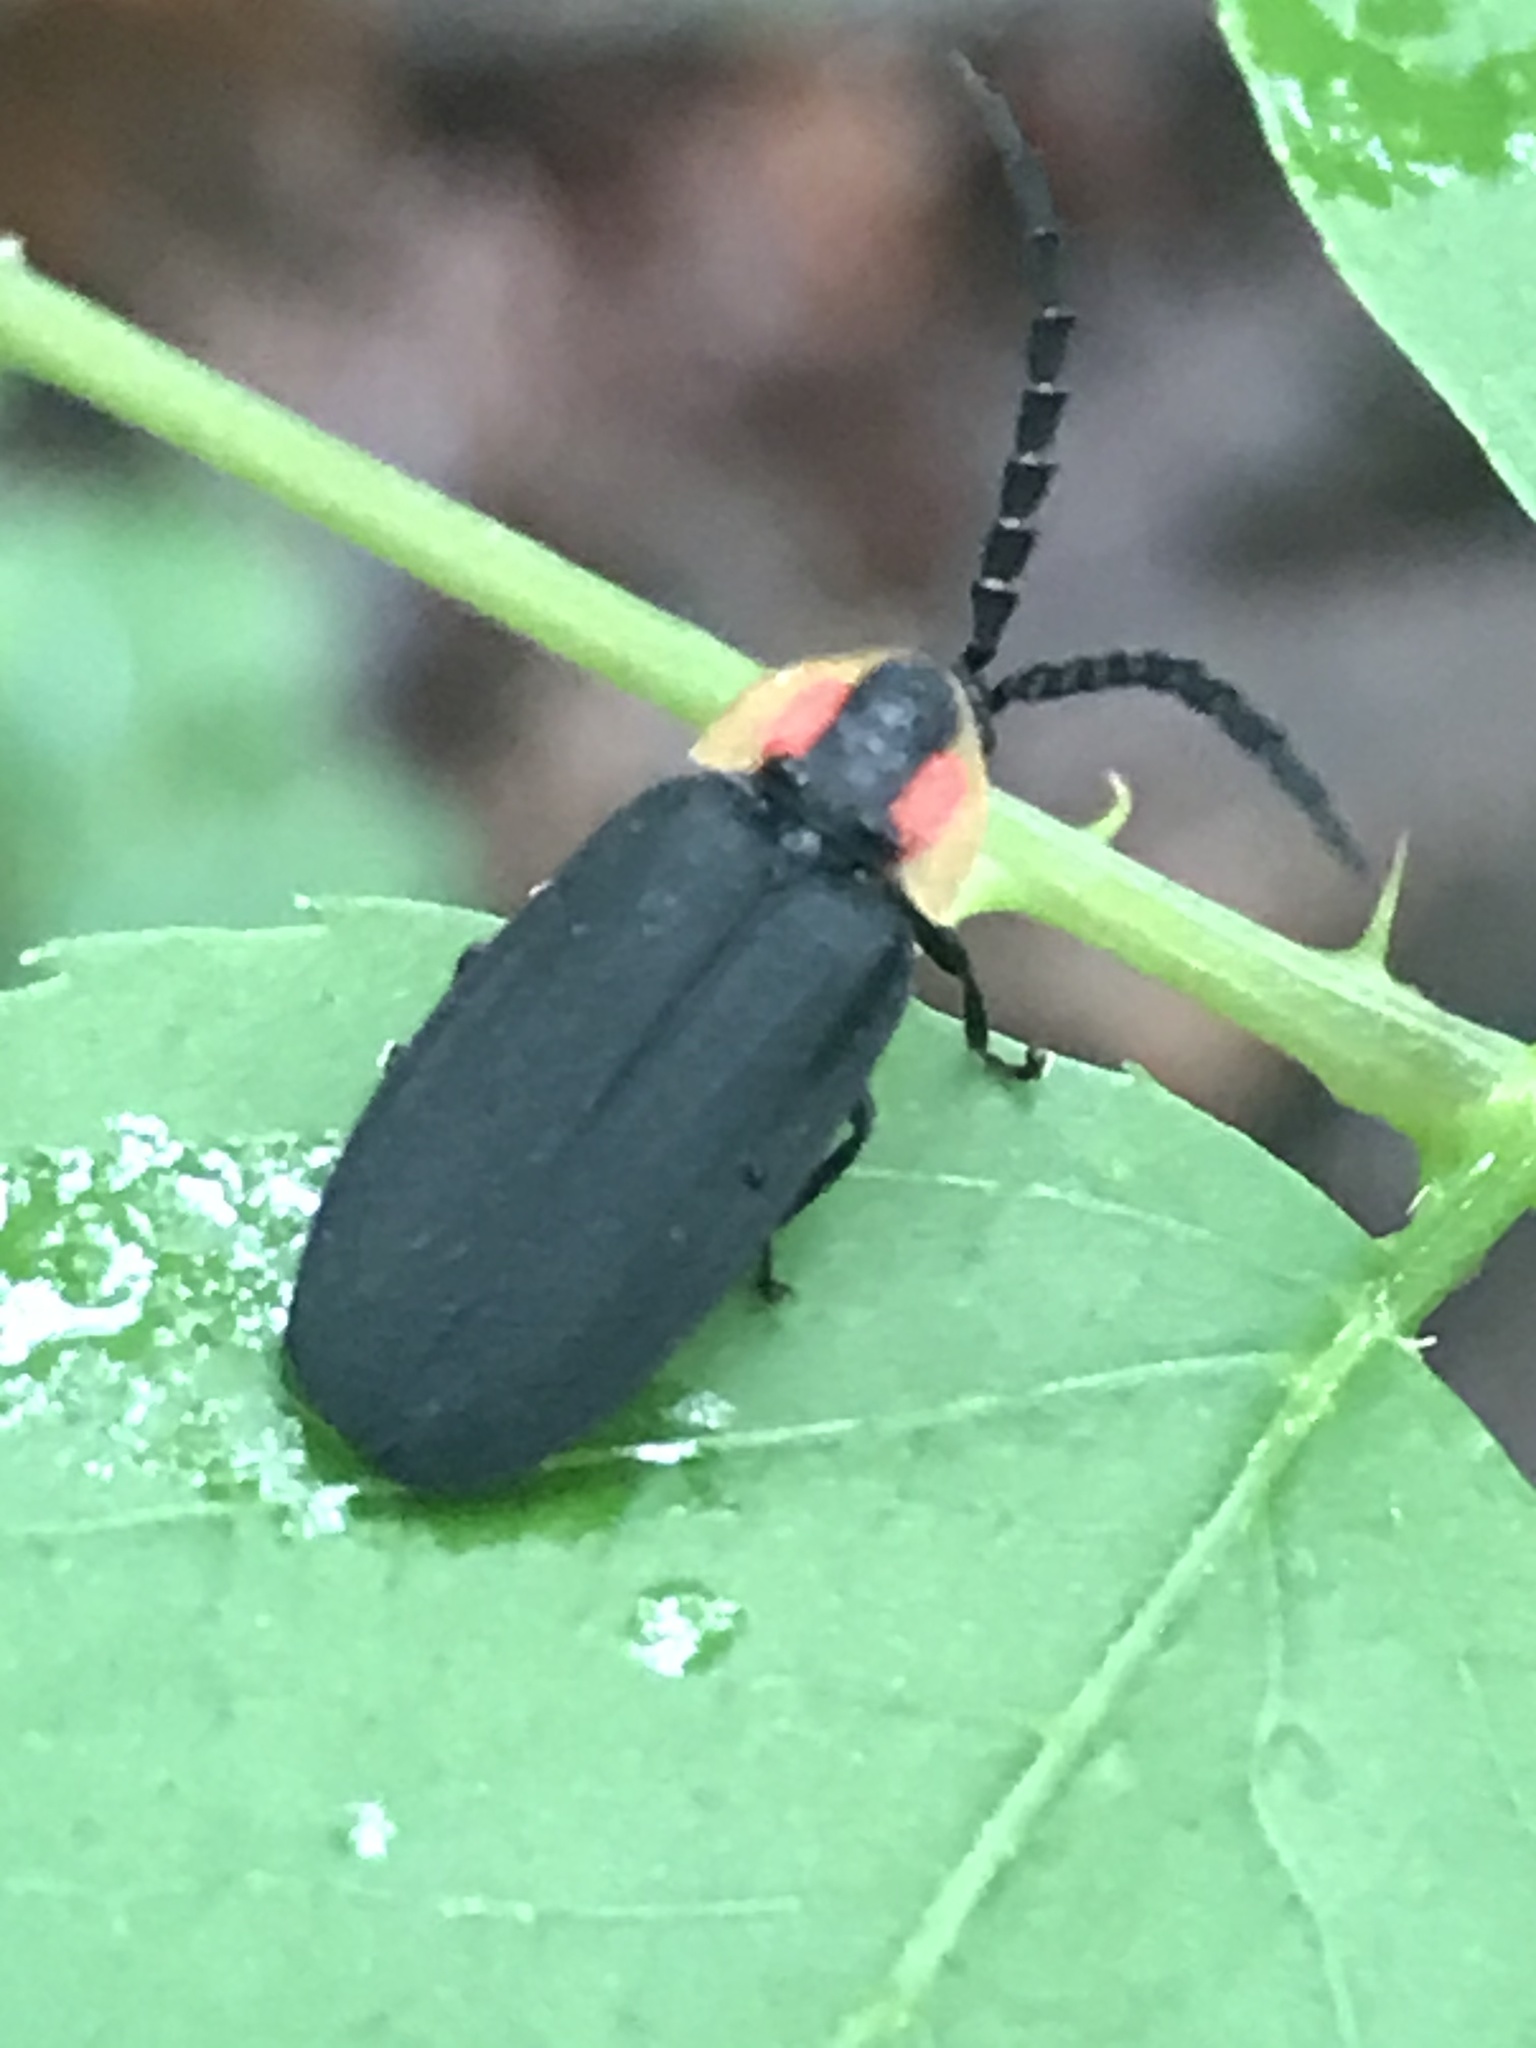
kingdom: Animalia
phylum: Arthropoda
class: Insecta
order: Coleoptera
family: Lampyridae
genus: Lucidota
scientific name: Lucidota atra
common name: Black firefly
